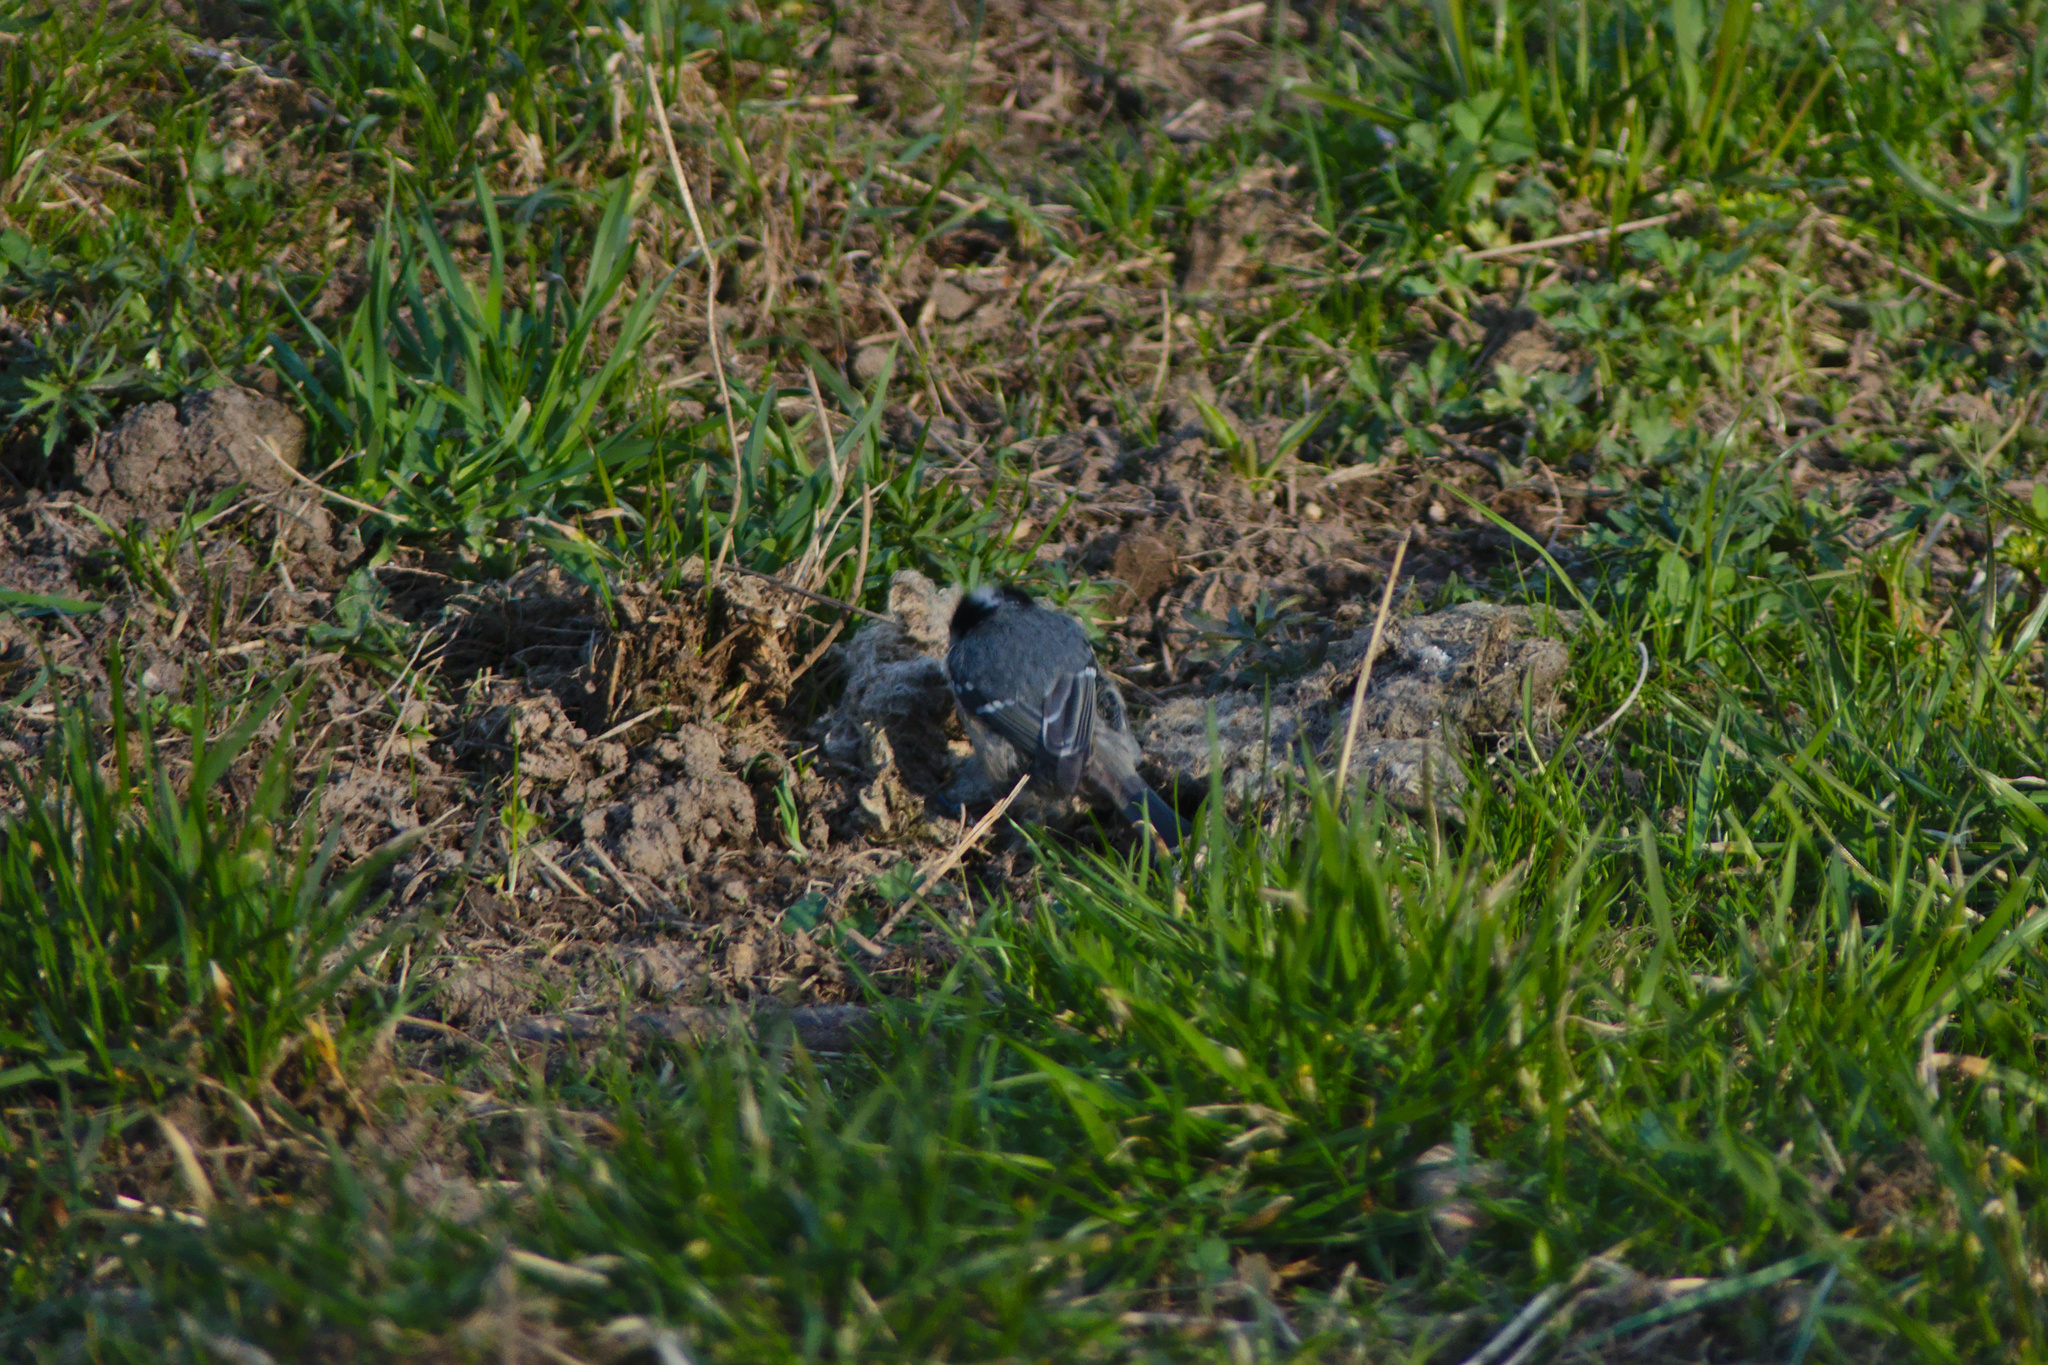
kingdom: Animalia
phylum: Chordata
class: Aves
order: Passeriformes
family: Paridae
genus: Periparus
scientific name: Periparus ater
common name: Coal tit
